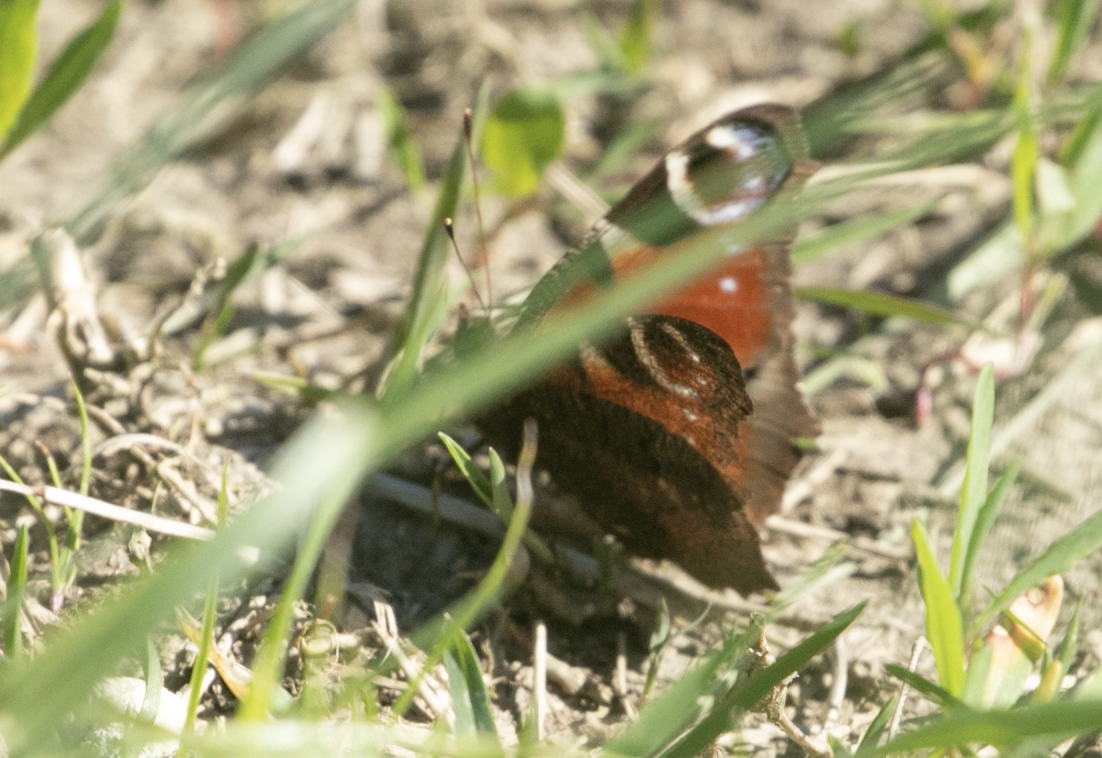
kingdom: Animalia
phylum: Arthropoda
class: Insecta
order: Lepidoptera
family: Nymphalidae
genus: Aglais
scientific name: Aglais io
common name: Peacock
